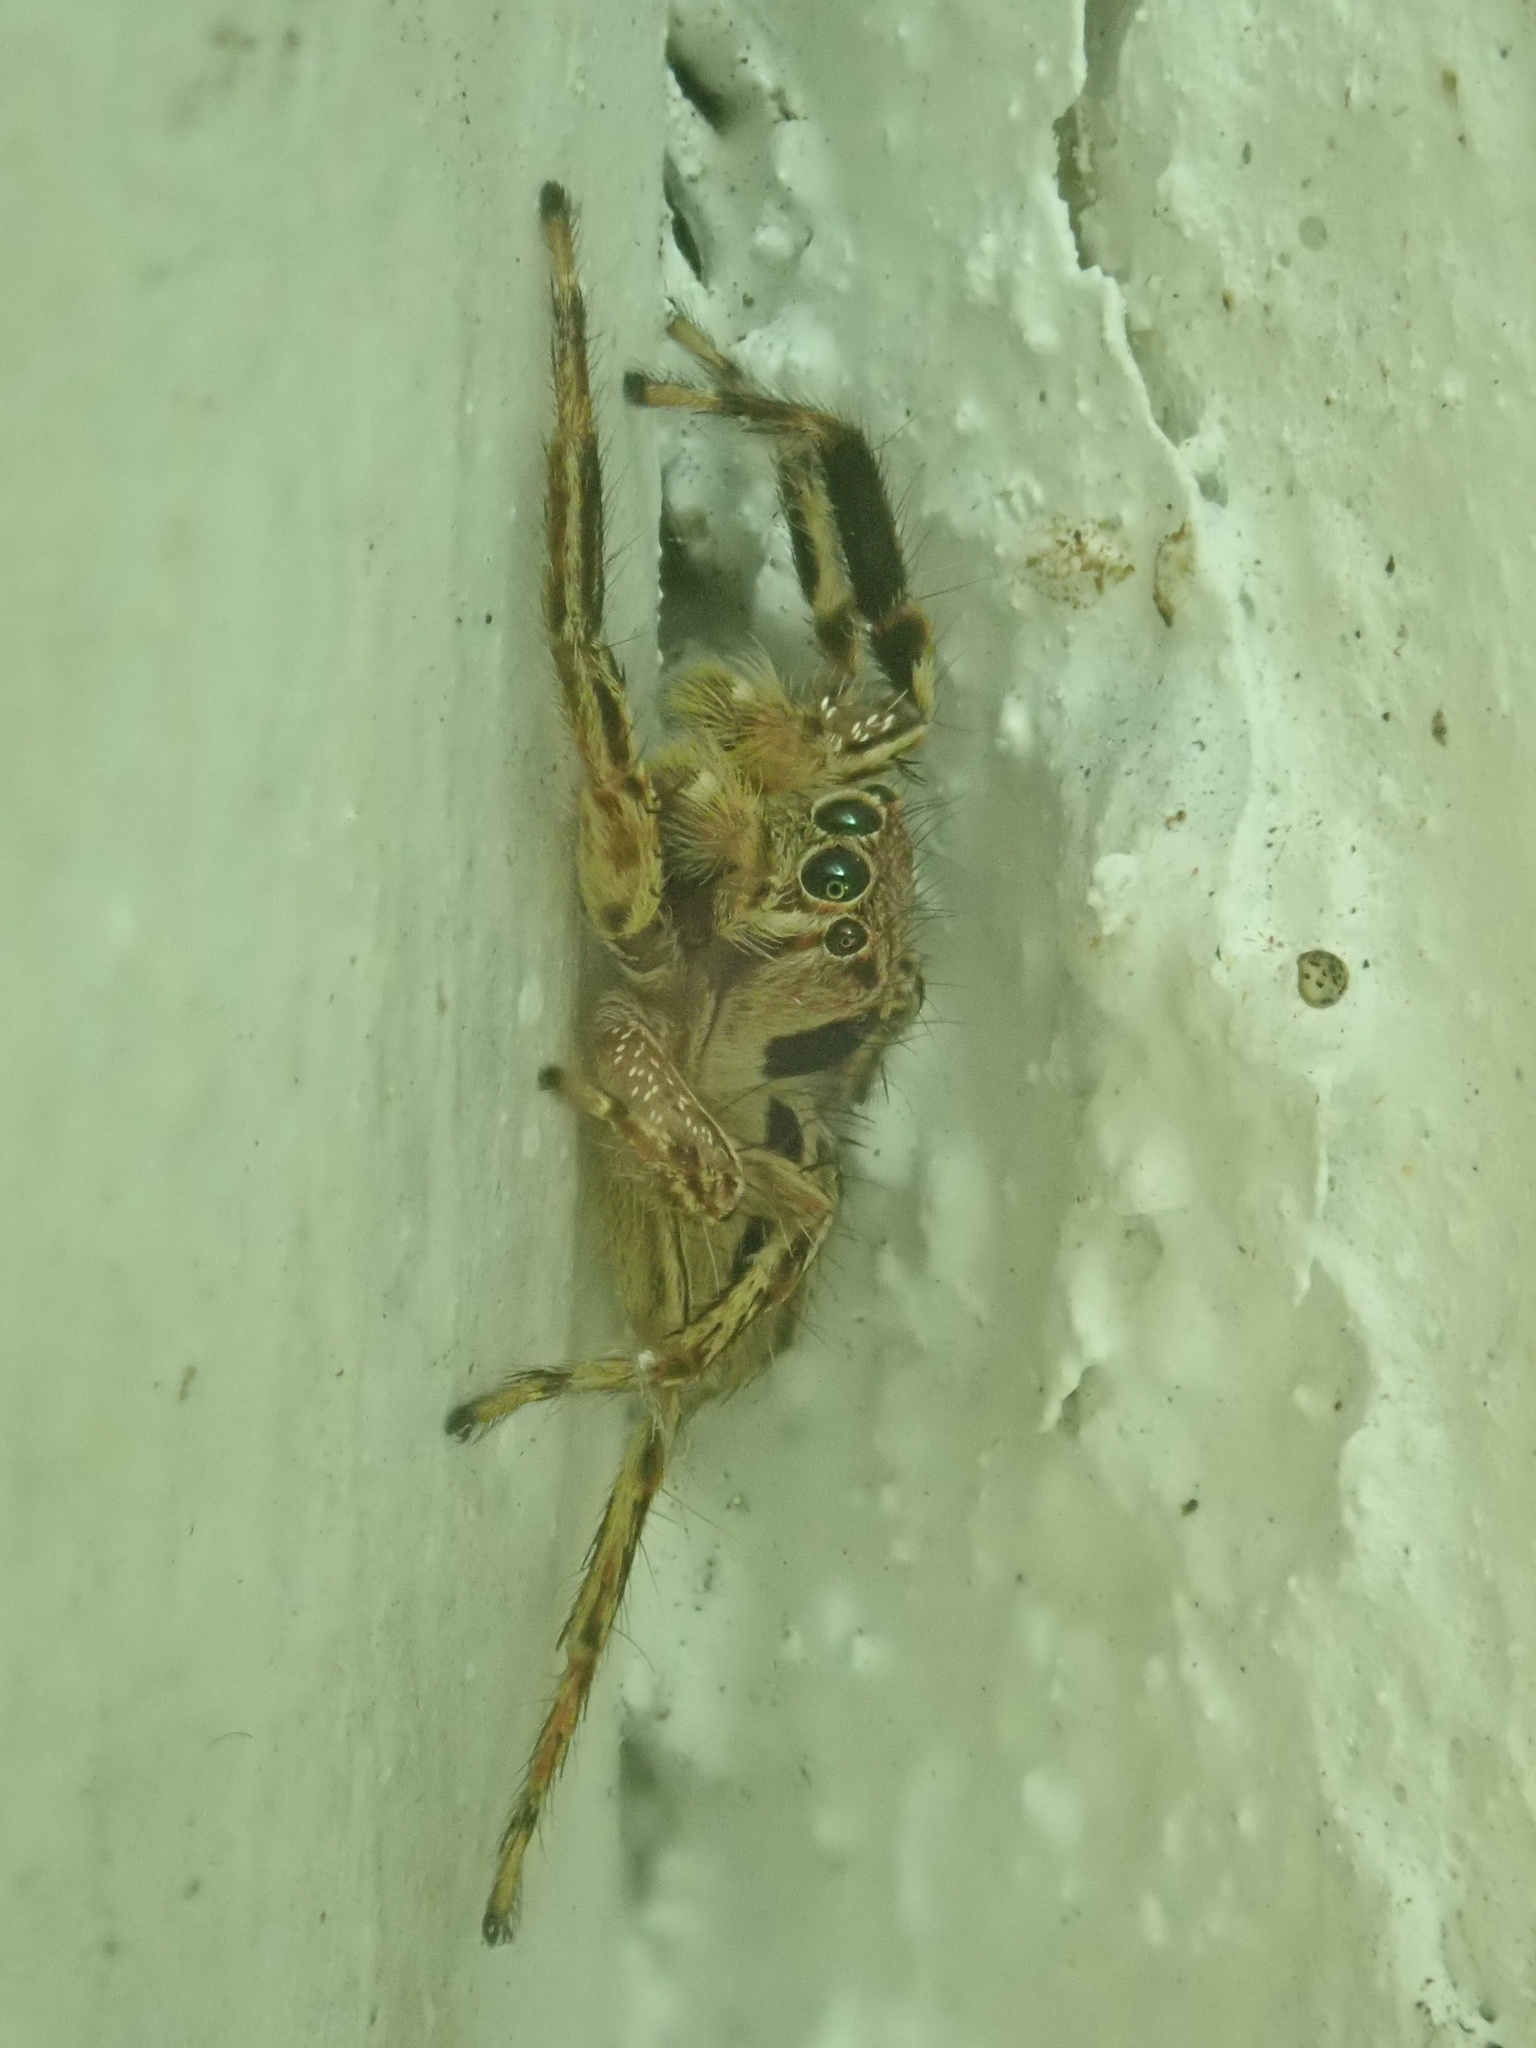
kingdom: Animalia
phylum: Arthropoda
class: Arachnida
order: Araneae
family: Salticidae
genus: Plexippus
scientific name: Plexippus petersi
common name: Jumping spider
